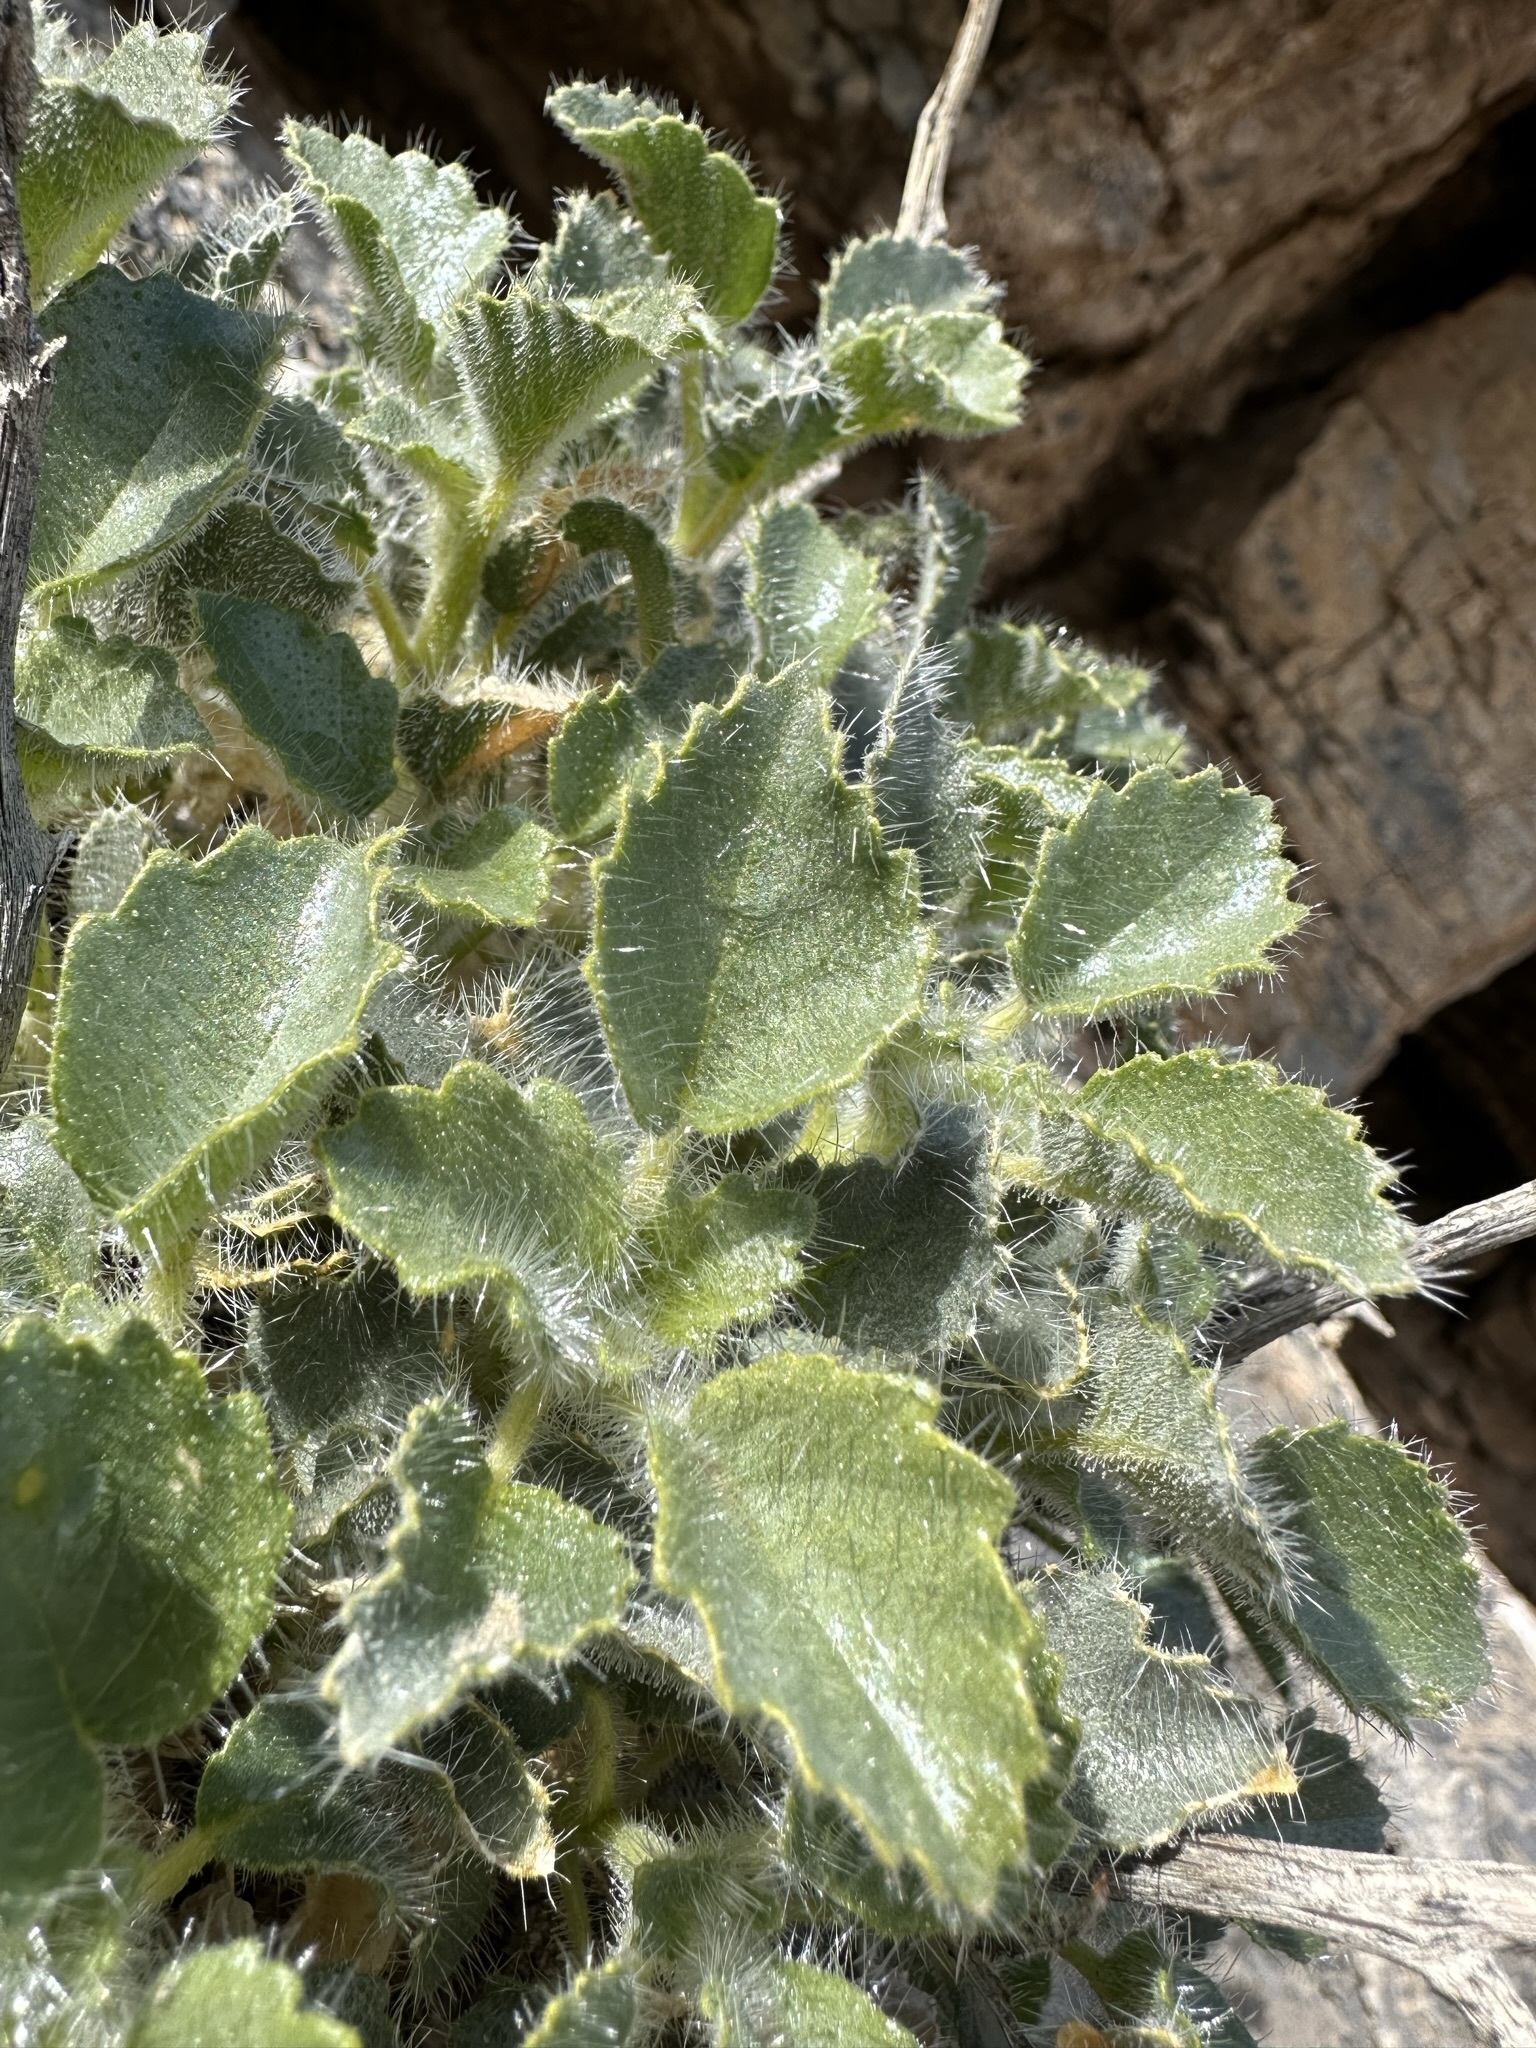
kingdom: Plantae
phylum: Tracheophyta
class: Magnoliopsida
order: Cornales
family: Loasaceae
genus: Eucnide
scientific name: Eucnide urens
